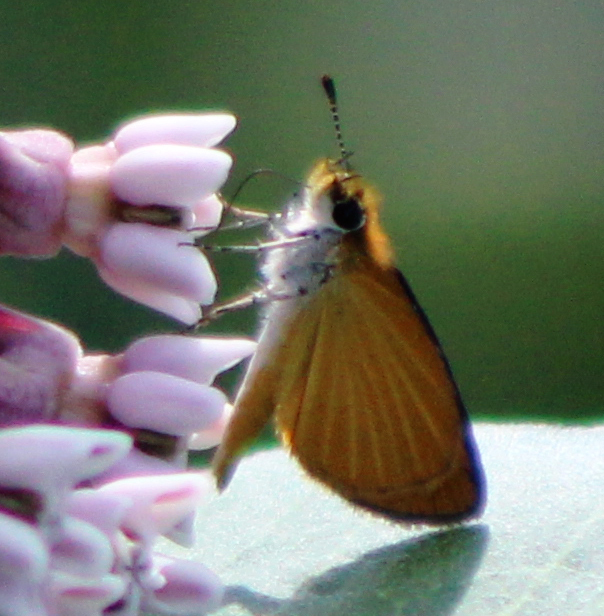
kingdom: Animalia
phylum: Arthropoda
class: Insecta
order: Lepidoptera
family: Hesperiidae
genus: Ancyloxypha
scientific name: Ancyloxypha numitor
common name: Least skipper
